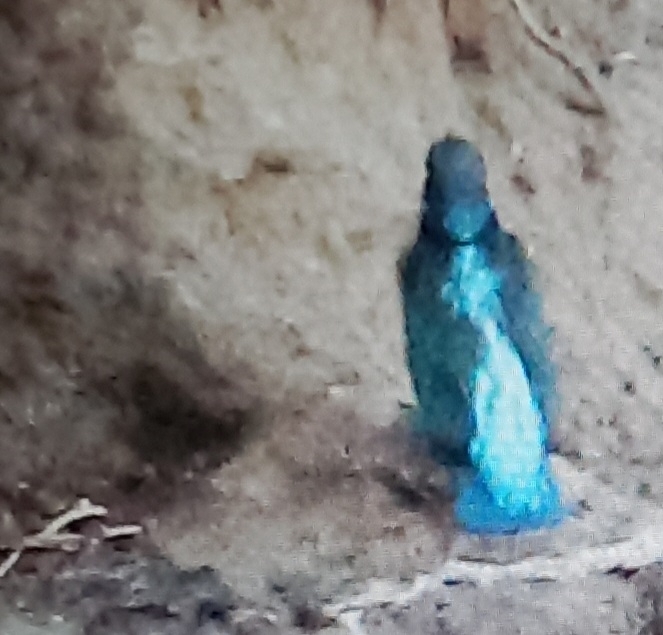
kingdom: Animalia
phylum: Chordata
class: Aves
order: Coraciiformes
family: Alcedinidae
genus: Alcedo
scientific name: Alcedo atthis
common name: Common kingfisher
